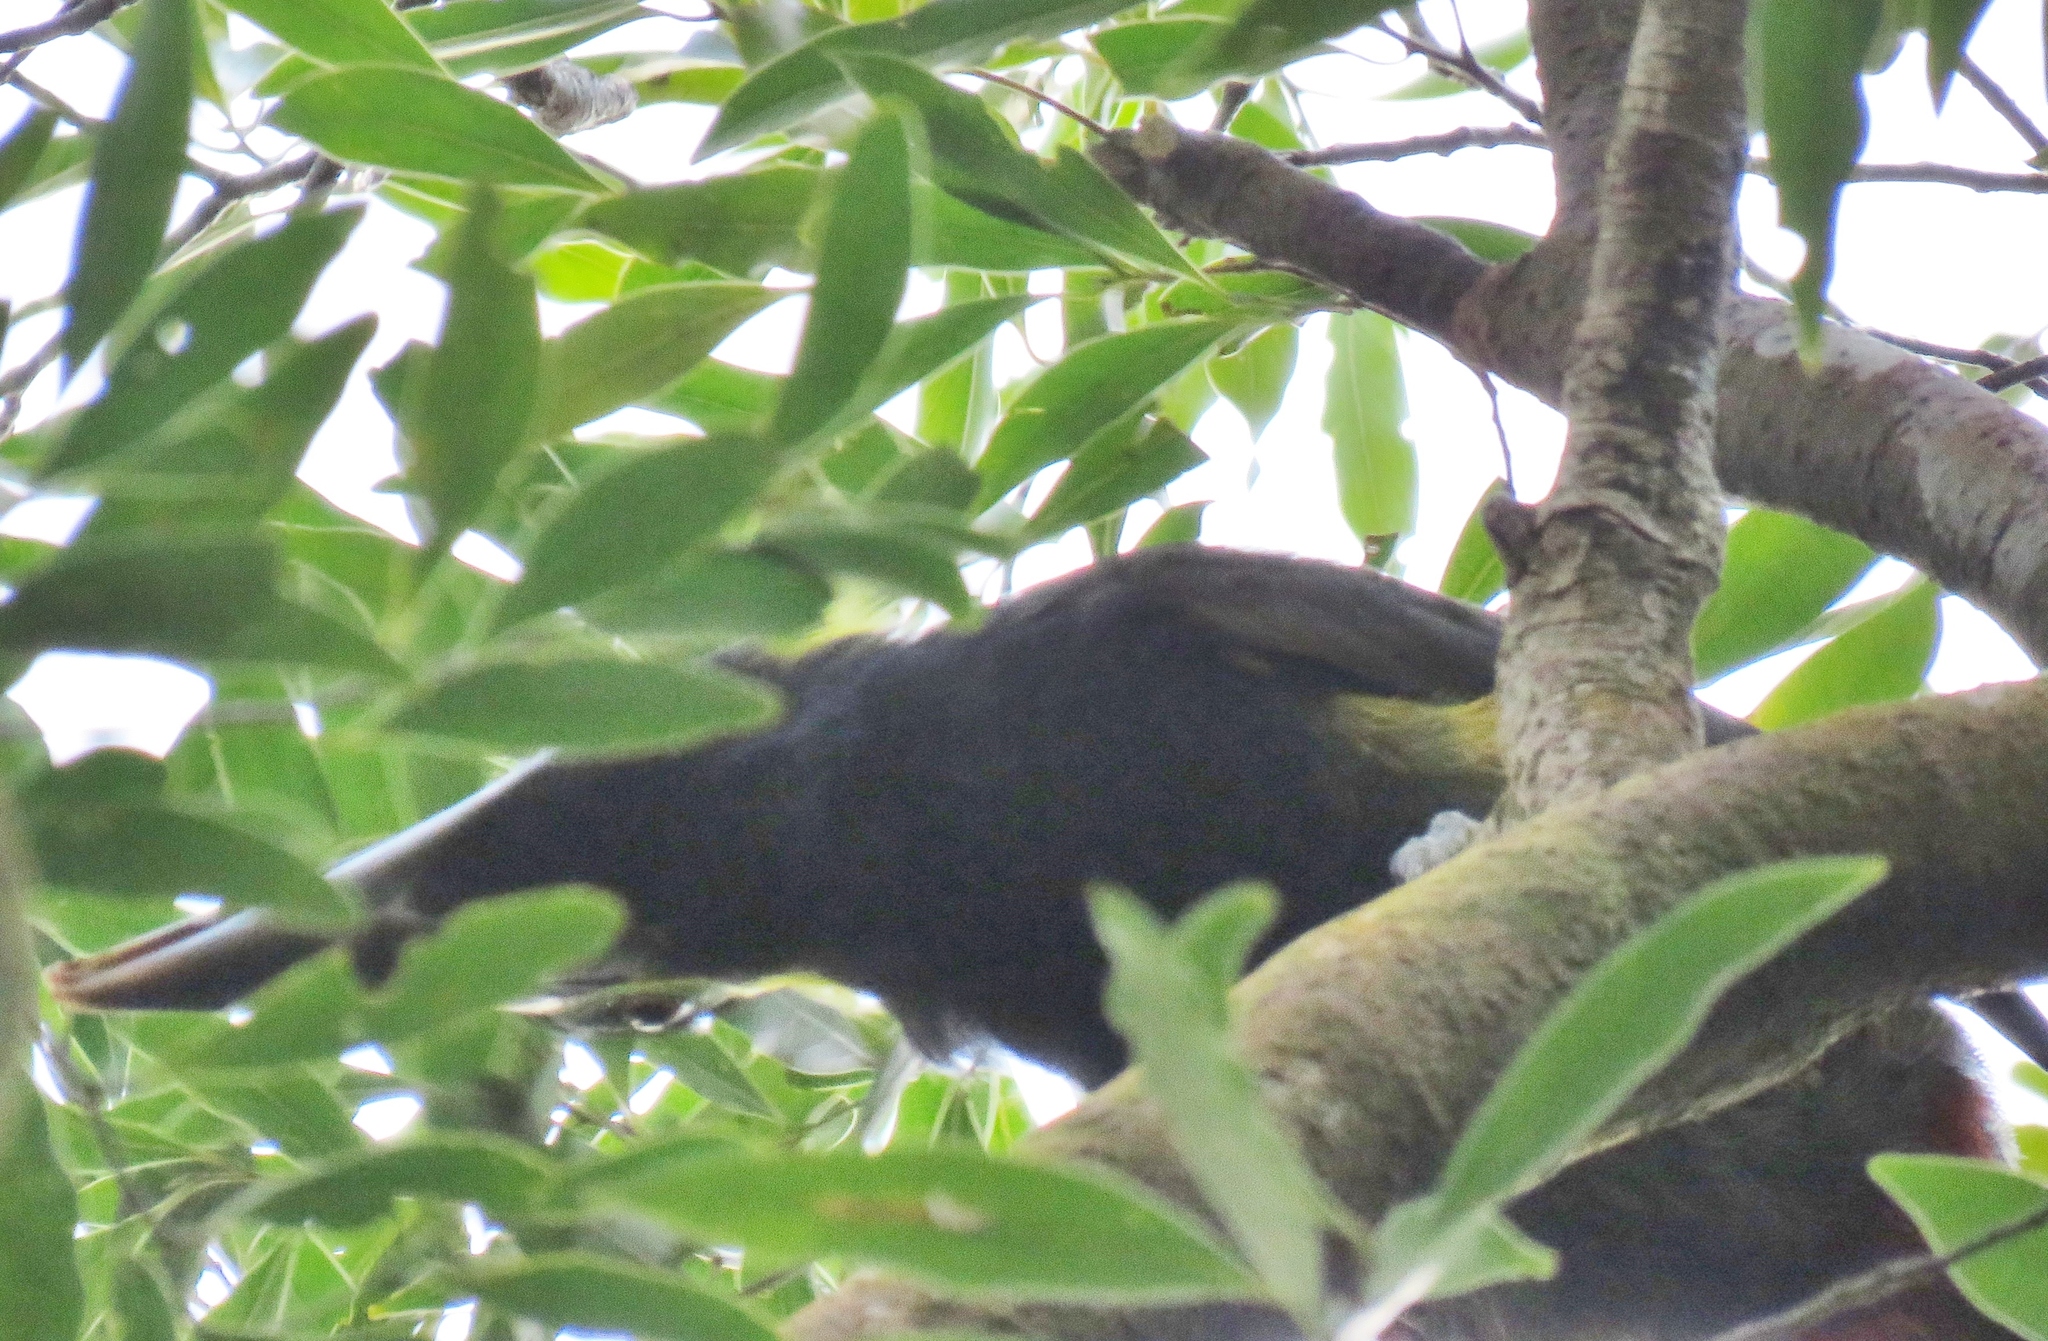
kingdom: Animalia
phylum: Chordata
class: Aves
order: Piciformes
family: Ramphastidae
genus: Selenidera
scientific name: Selenidera spectabilis
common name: Yellow-eared toucanet
